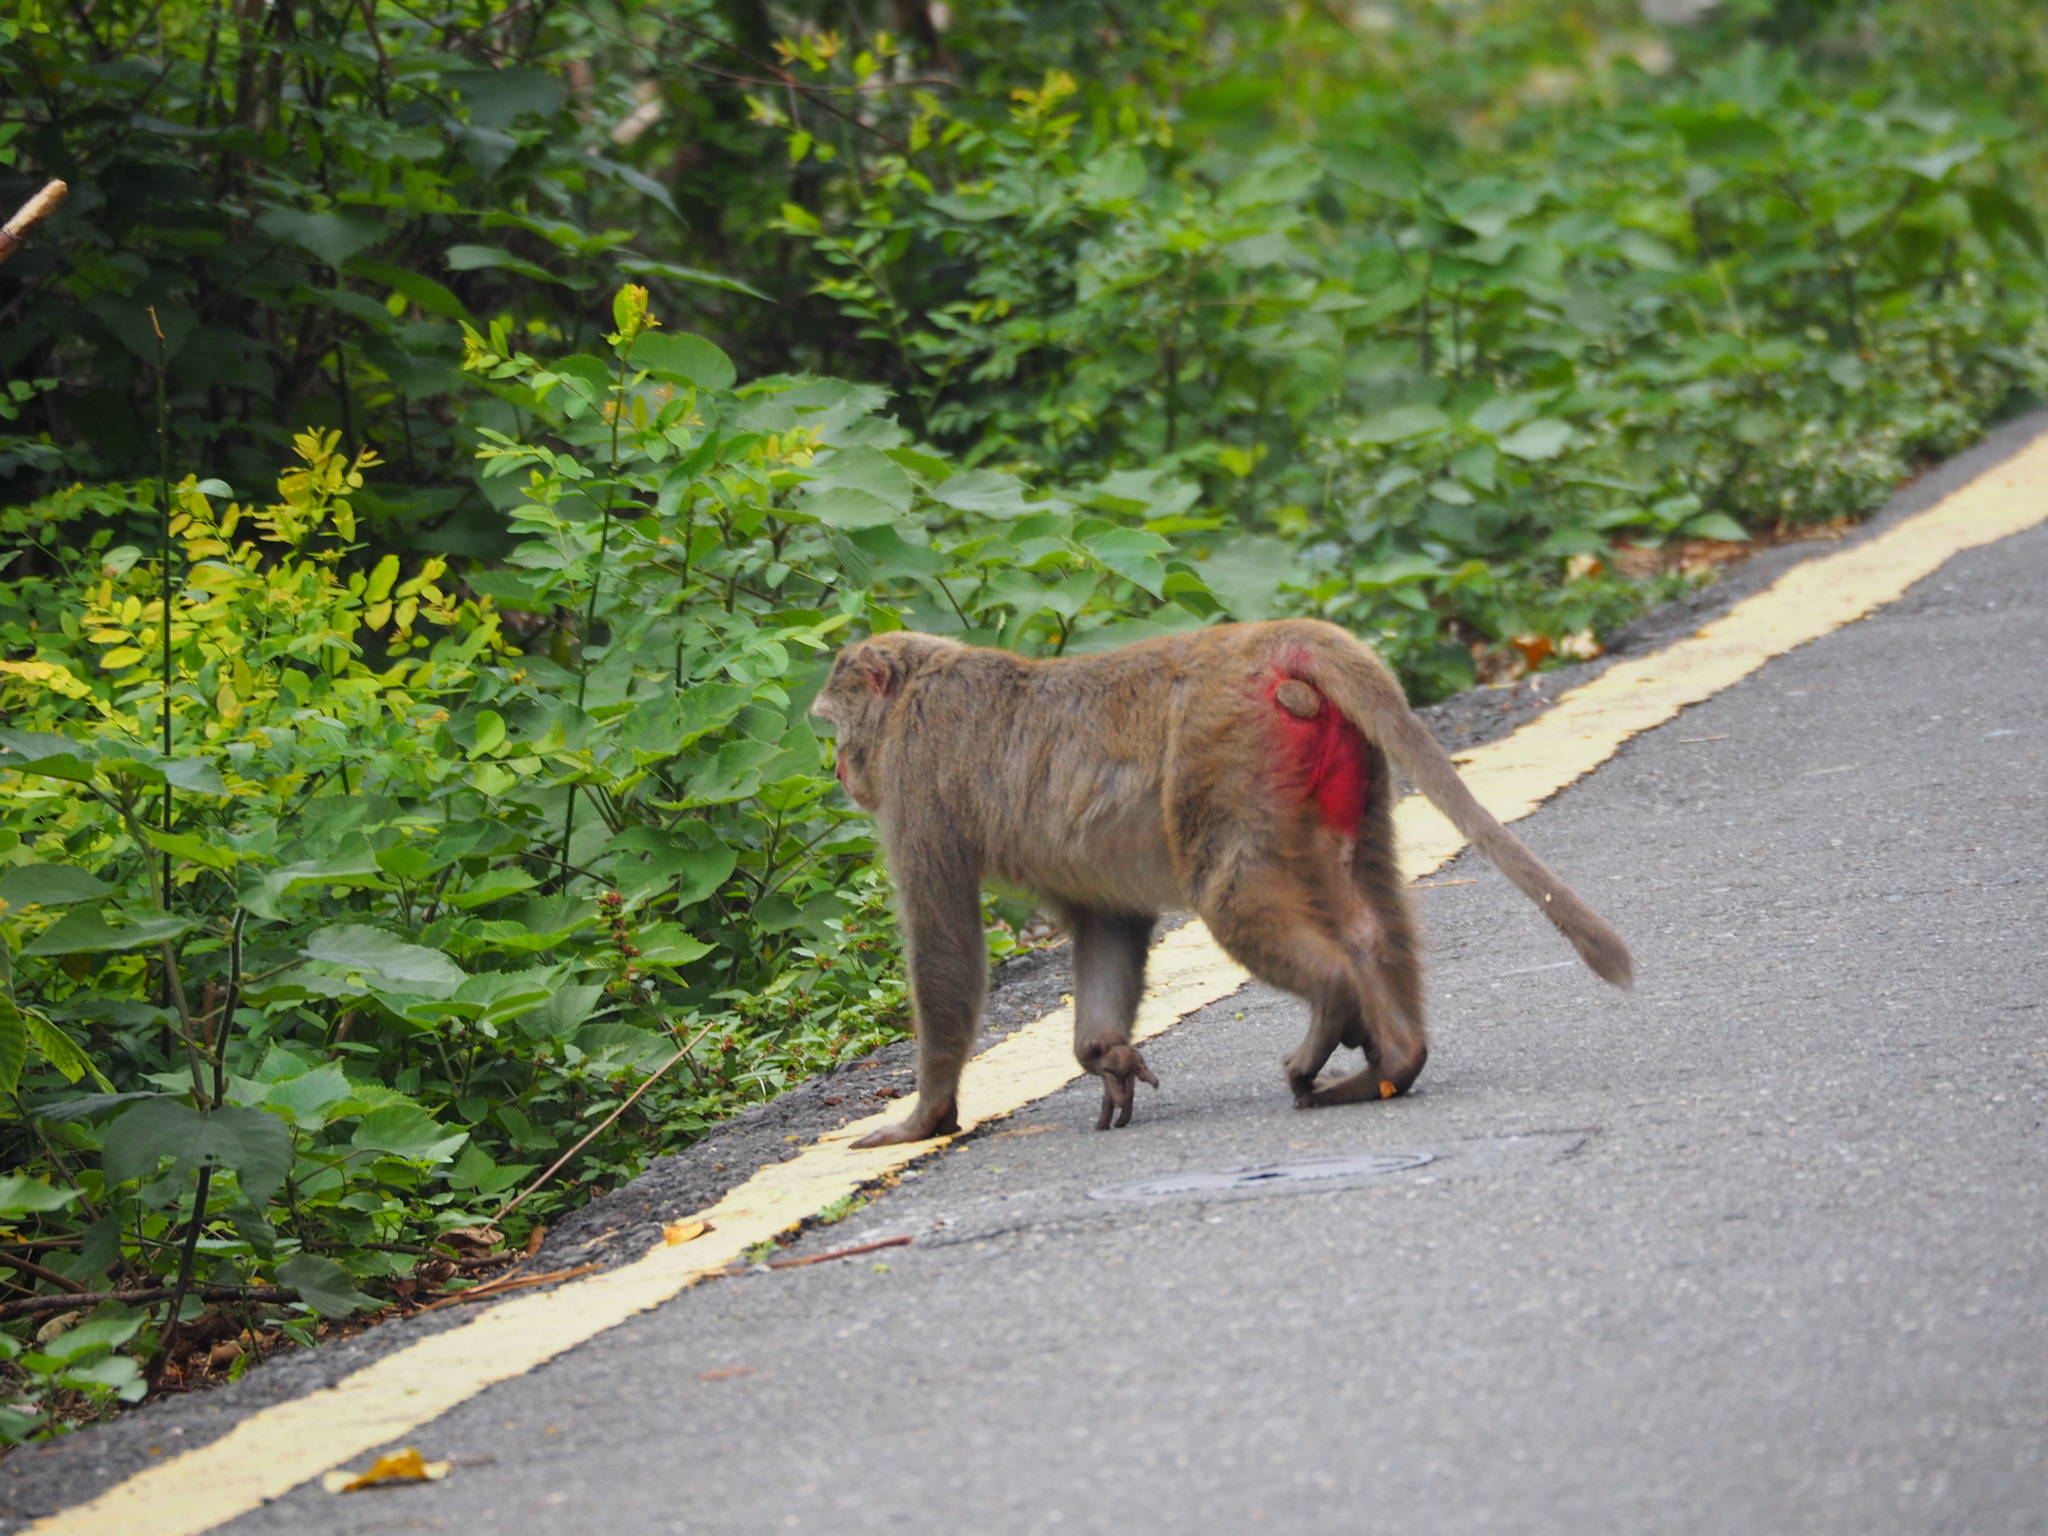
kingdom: Animalia
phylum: Chordata
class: Mammalia
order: Primates
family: Cercopithecidae
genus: Macaca
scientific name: Macaca cyclopis
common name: Formosan rock macaque
